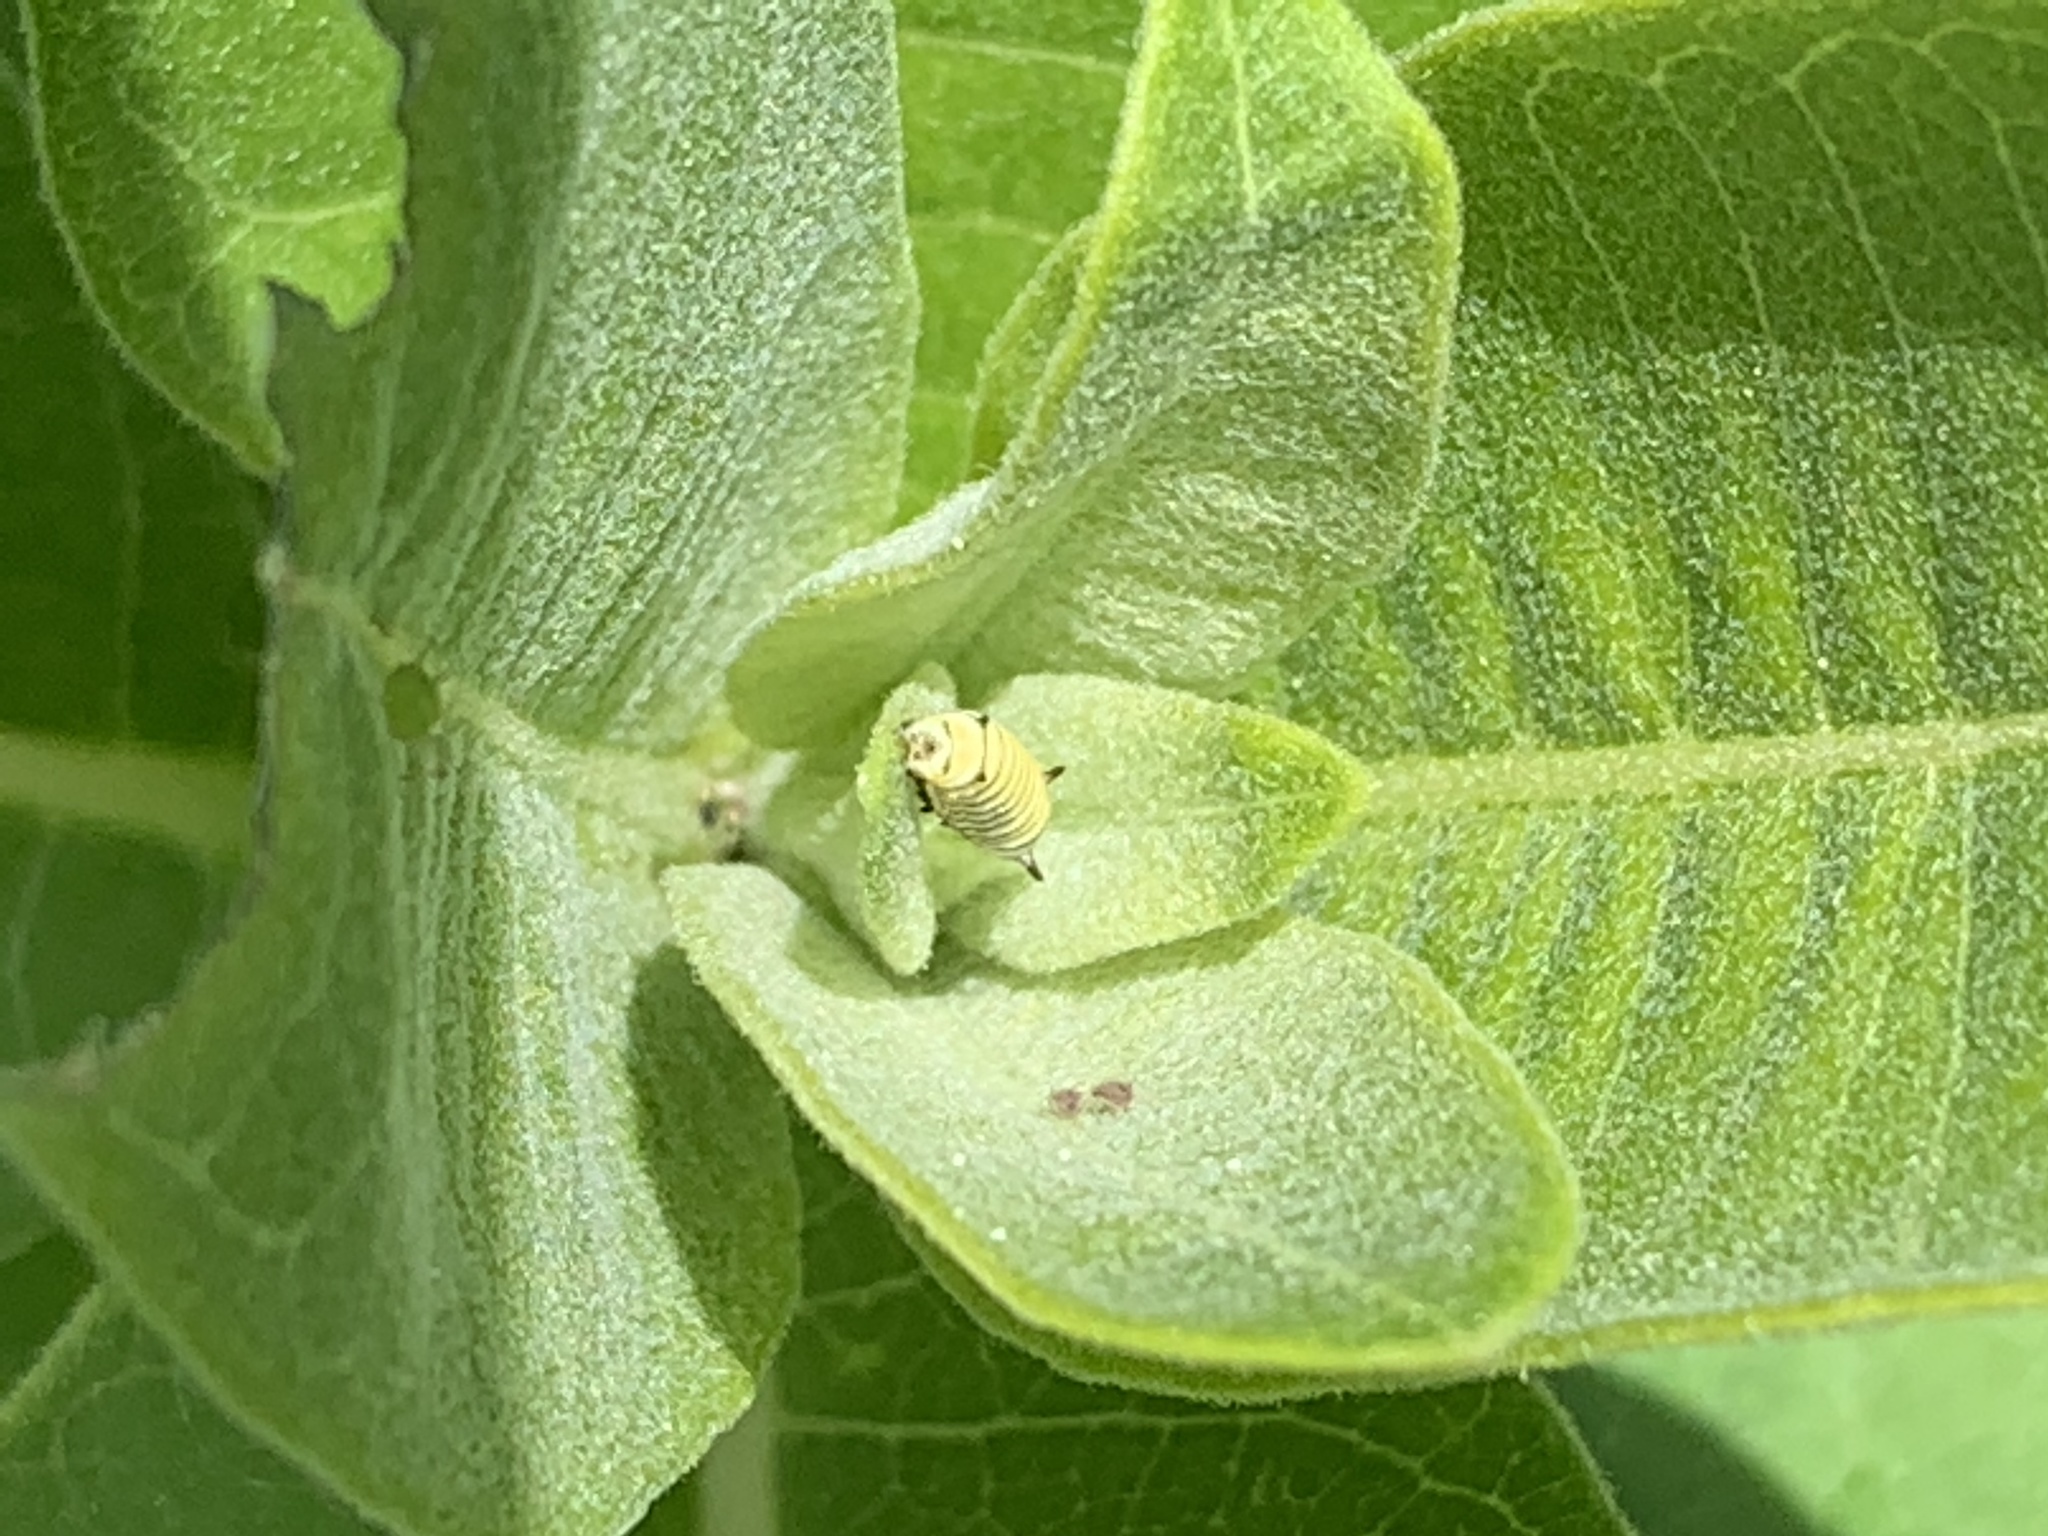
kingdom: Animalia
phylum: Arthropoda
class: Insecta
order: Lepidoptera
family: Nymphalidae
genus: Danaus
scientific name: Danaus plexippus
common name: Monarch
